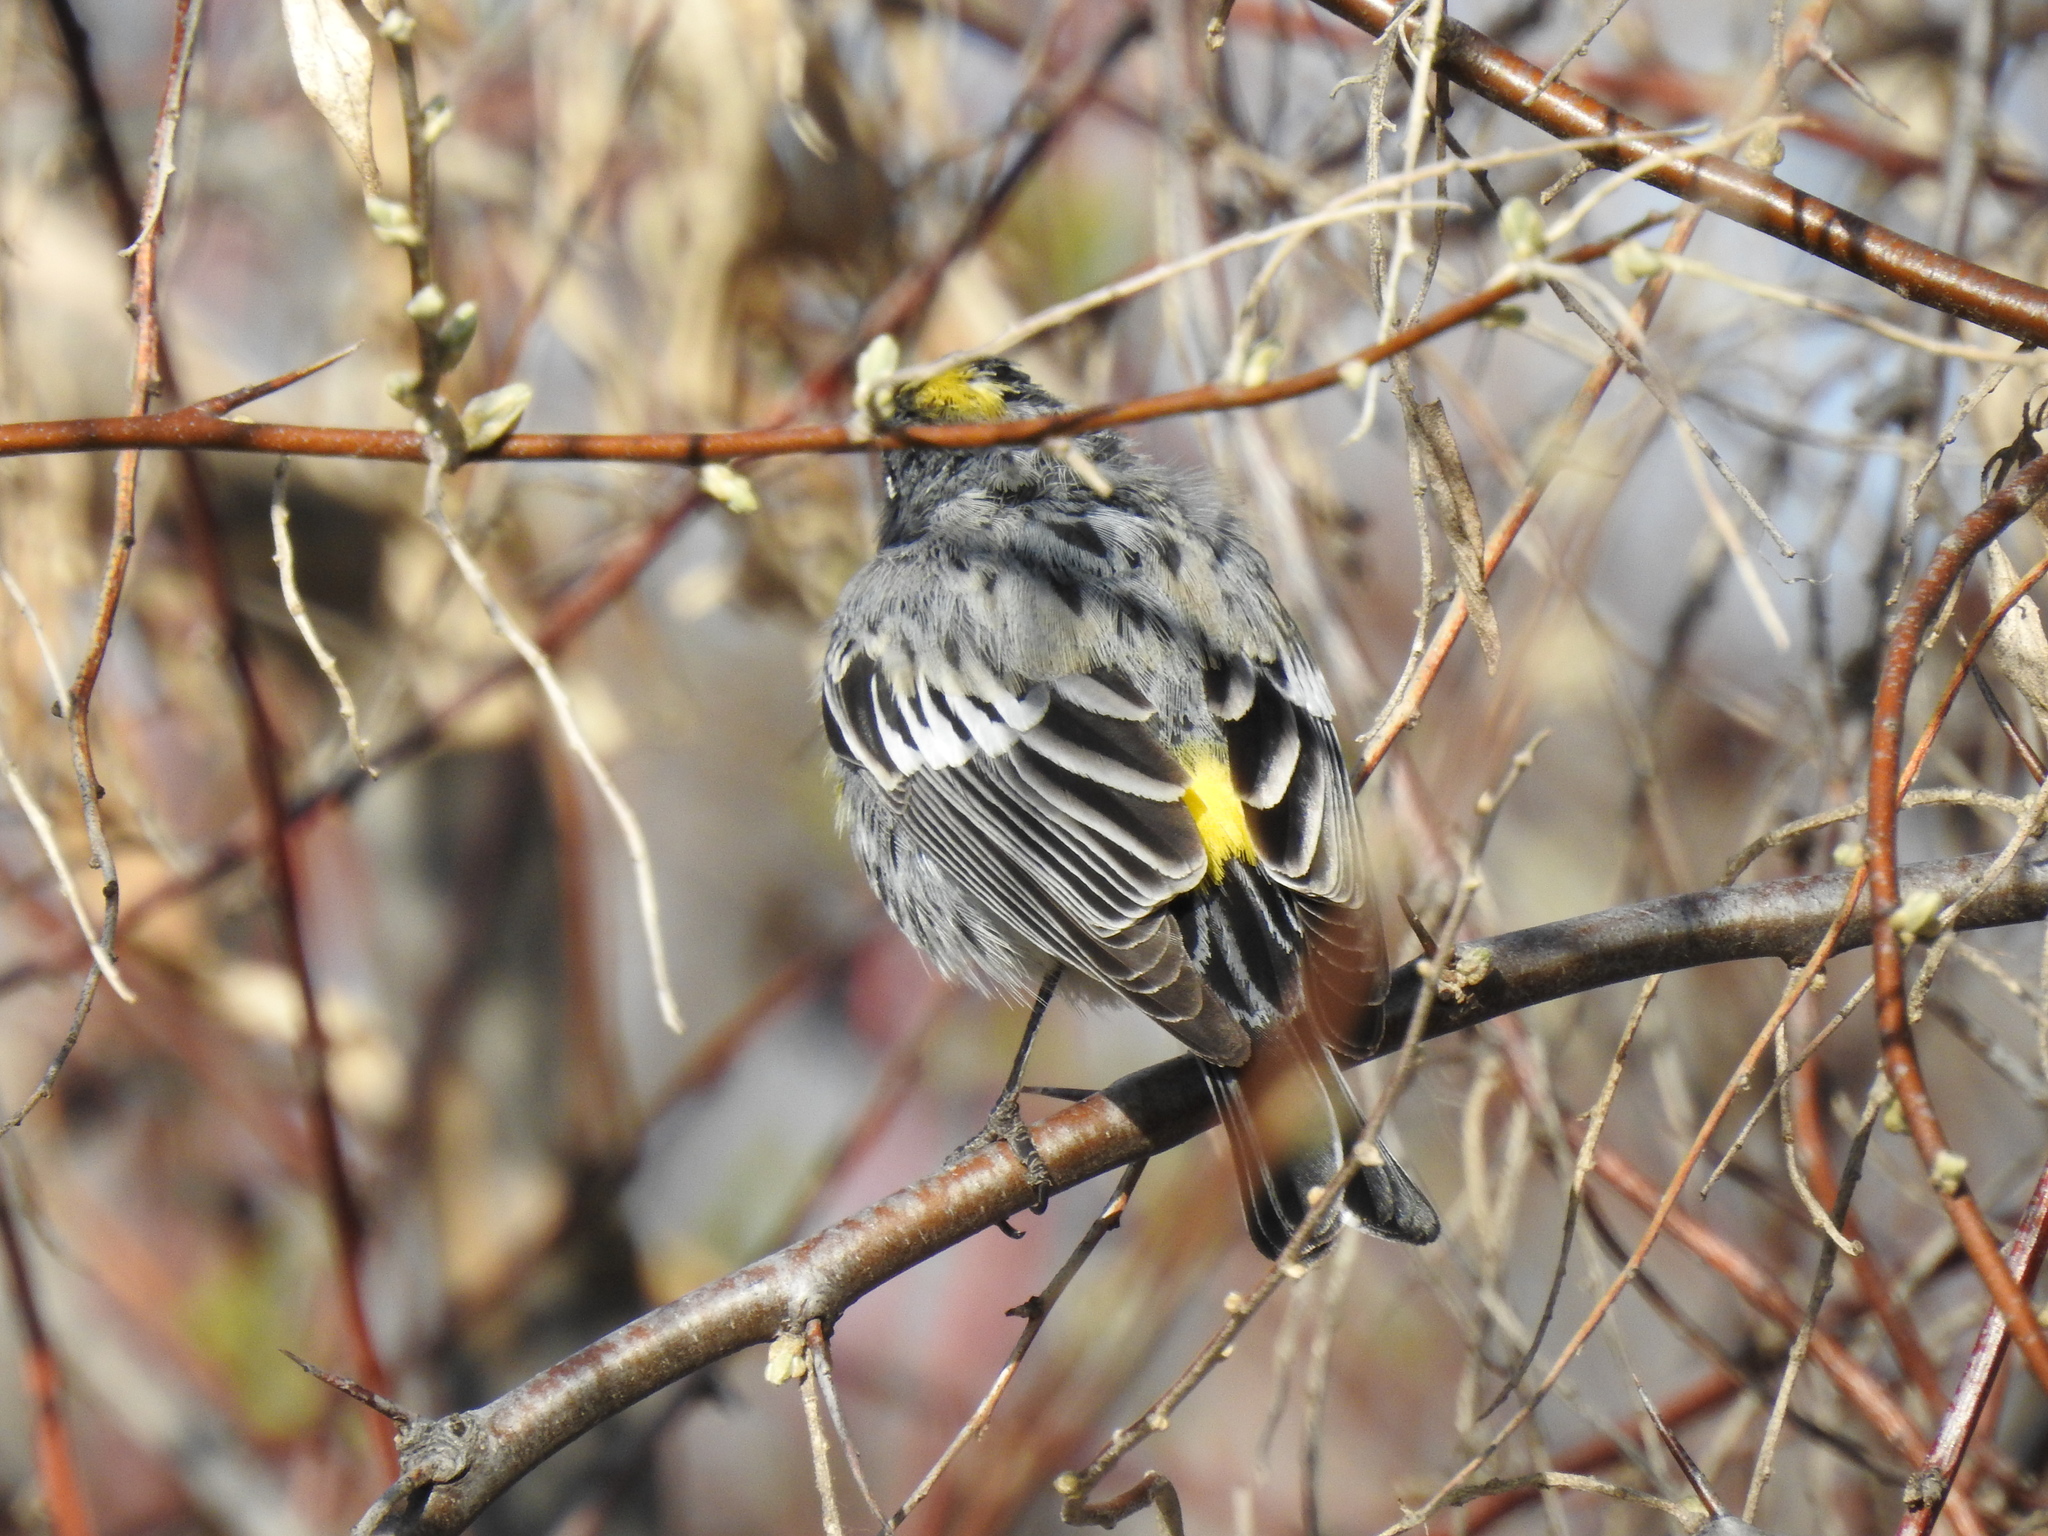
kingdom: Animalia
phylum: Chordata
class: Aves
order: Passeriformes
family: Parulidae
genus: Setophaga
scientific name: Setophaga coronata
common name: Myrtle warbler
